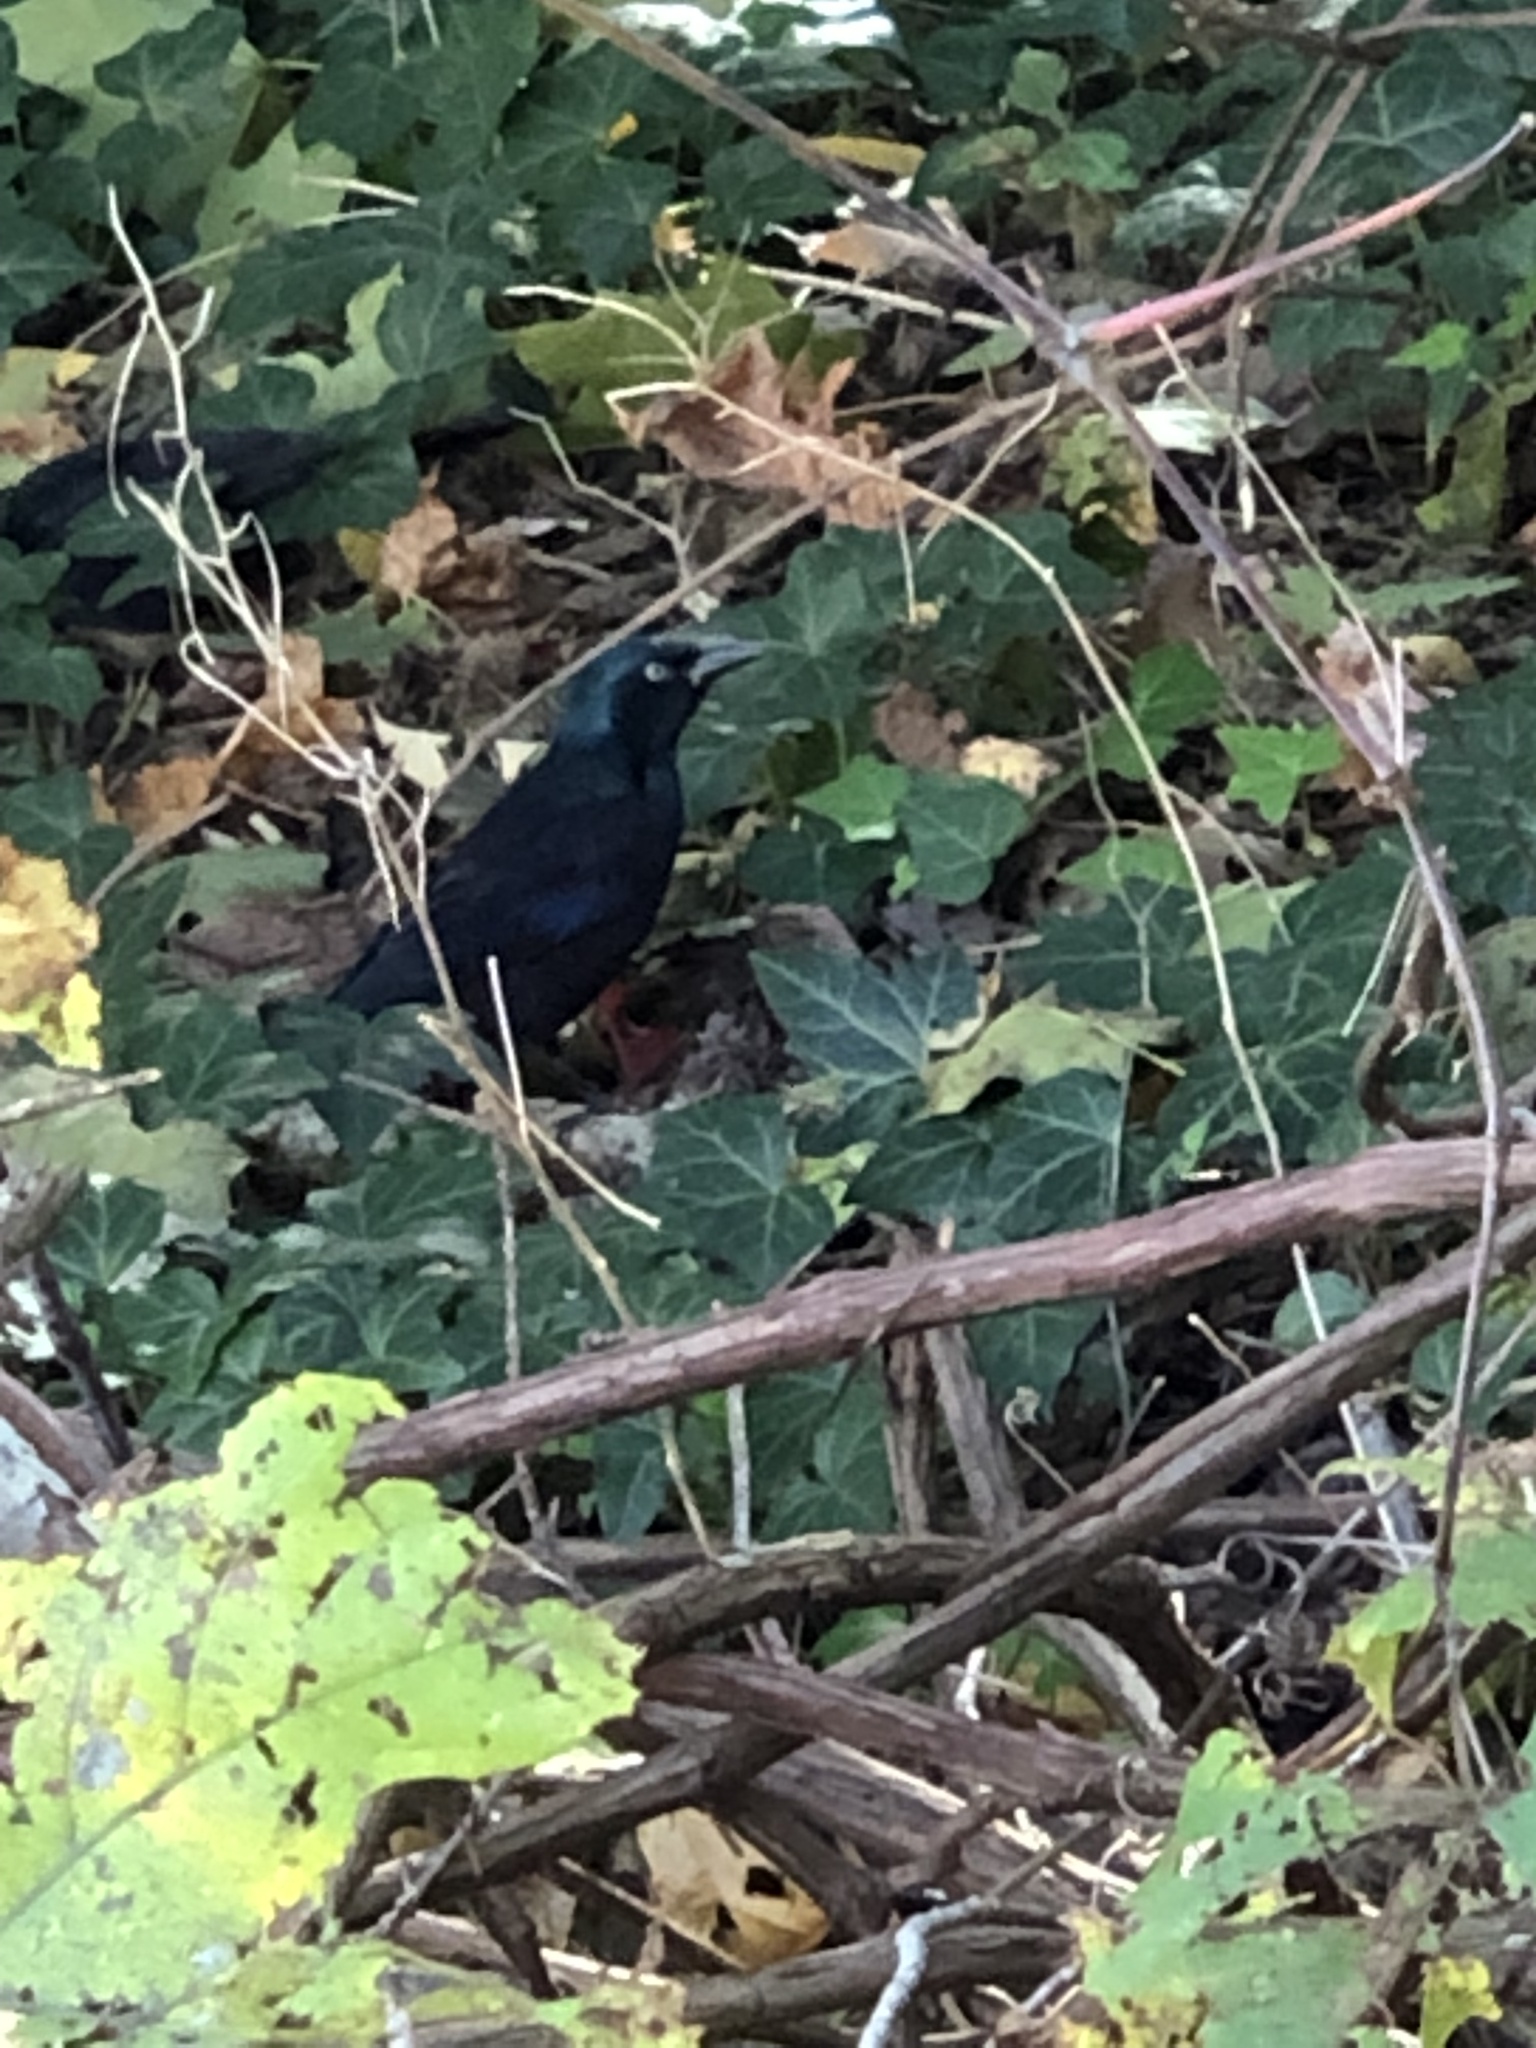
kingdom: Animalia
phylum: Chordata
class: Aves
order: Passeriformes
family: Icteridae
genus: Quiscalus
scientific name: Quiscalus quiscula
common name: Common grackle
